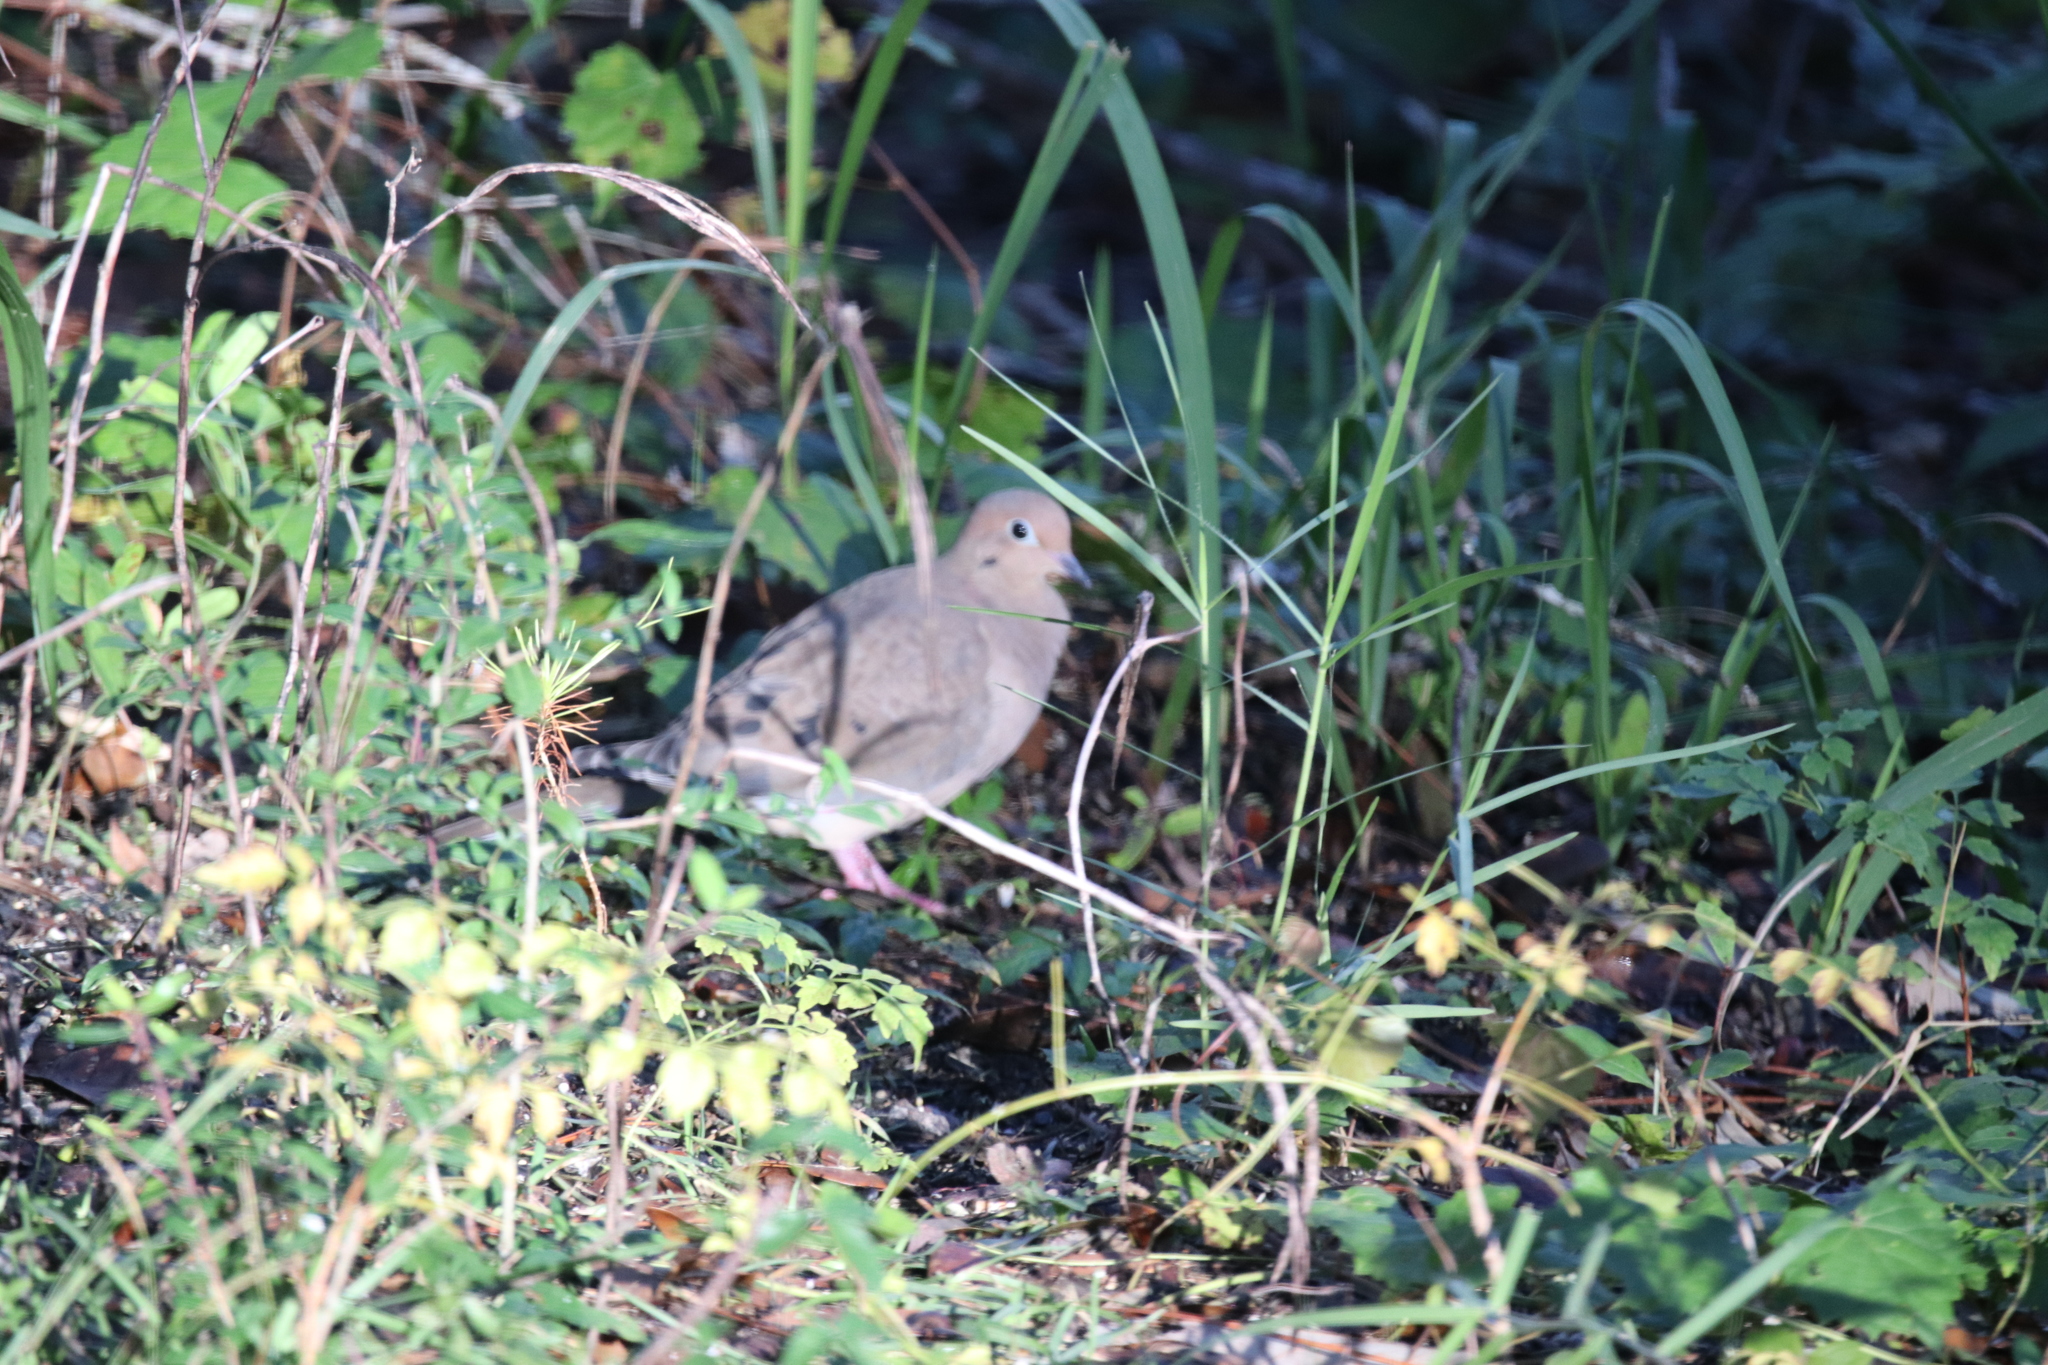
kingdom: Animalia
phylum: Chordata
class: Aves
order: Columbiformes
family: Columbidae
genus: Zenaida
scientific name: Zenaida macroura
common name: Mourning dove
